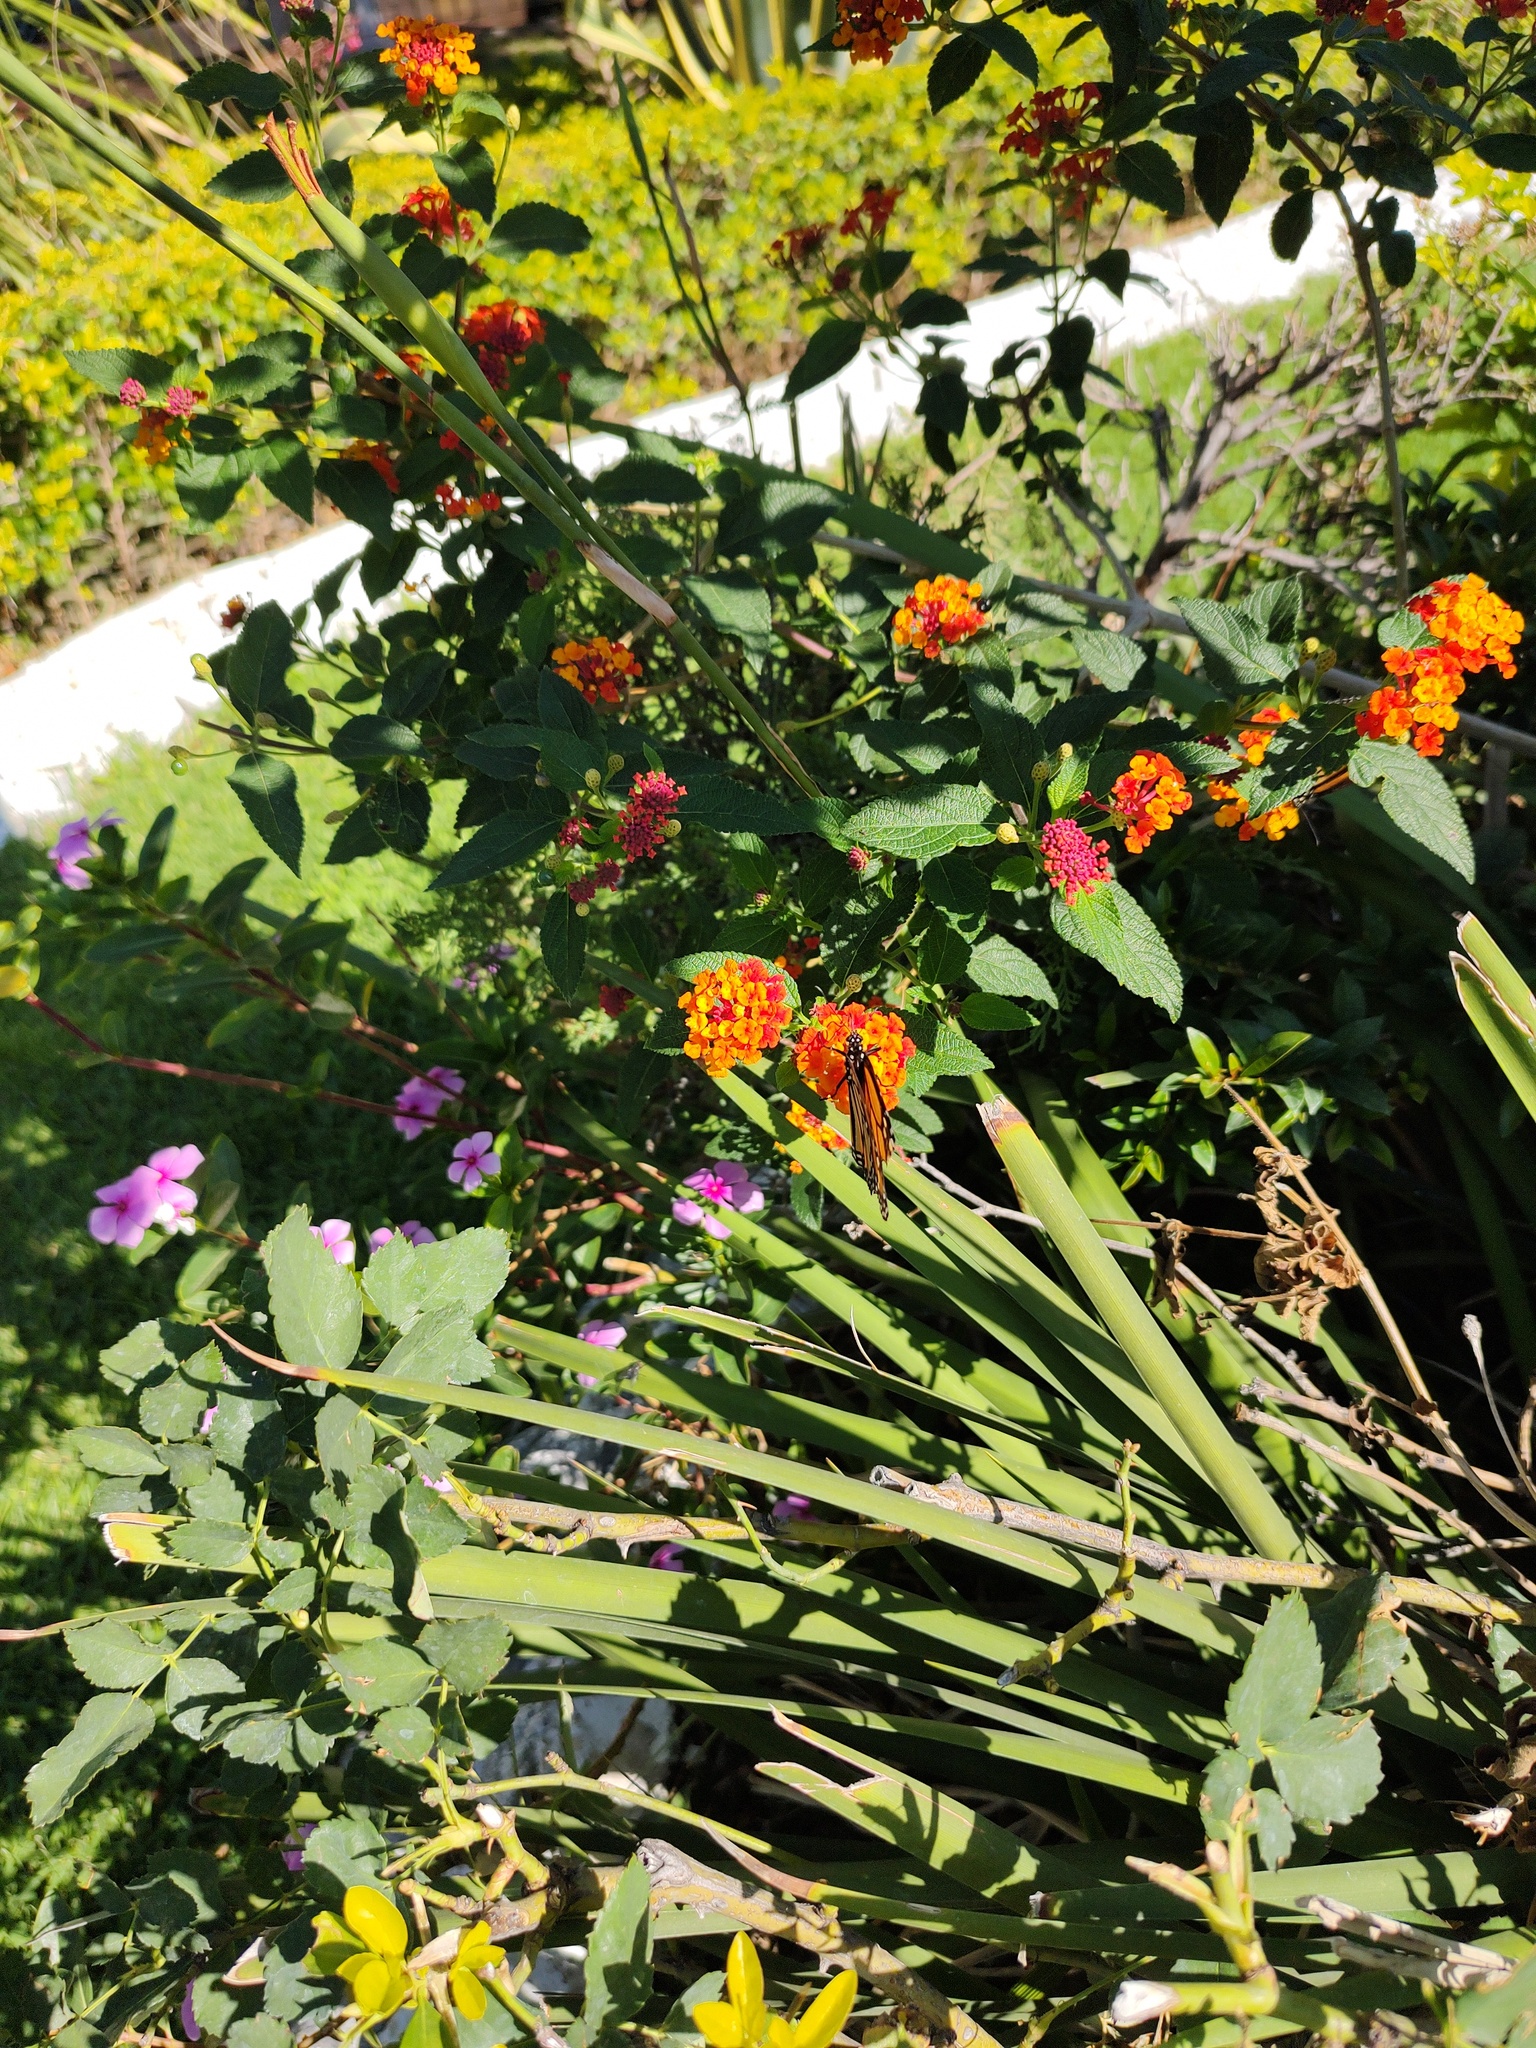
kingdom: Animalia
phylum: Arthropoda
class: Insecta
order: Lepidoptera
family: Nymphalidae
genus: Danaus
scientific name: Danaus plexippus
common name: Monarch
